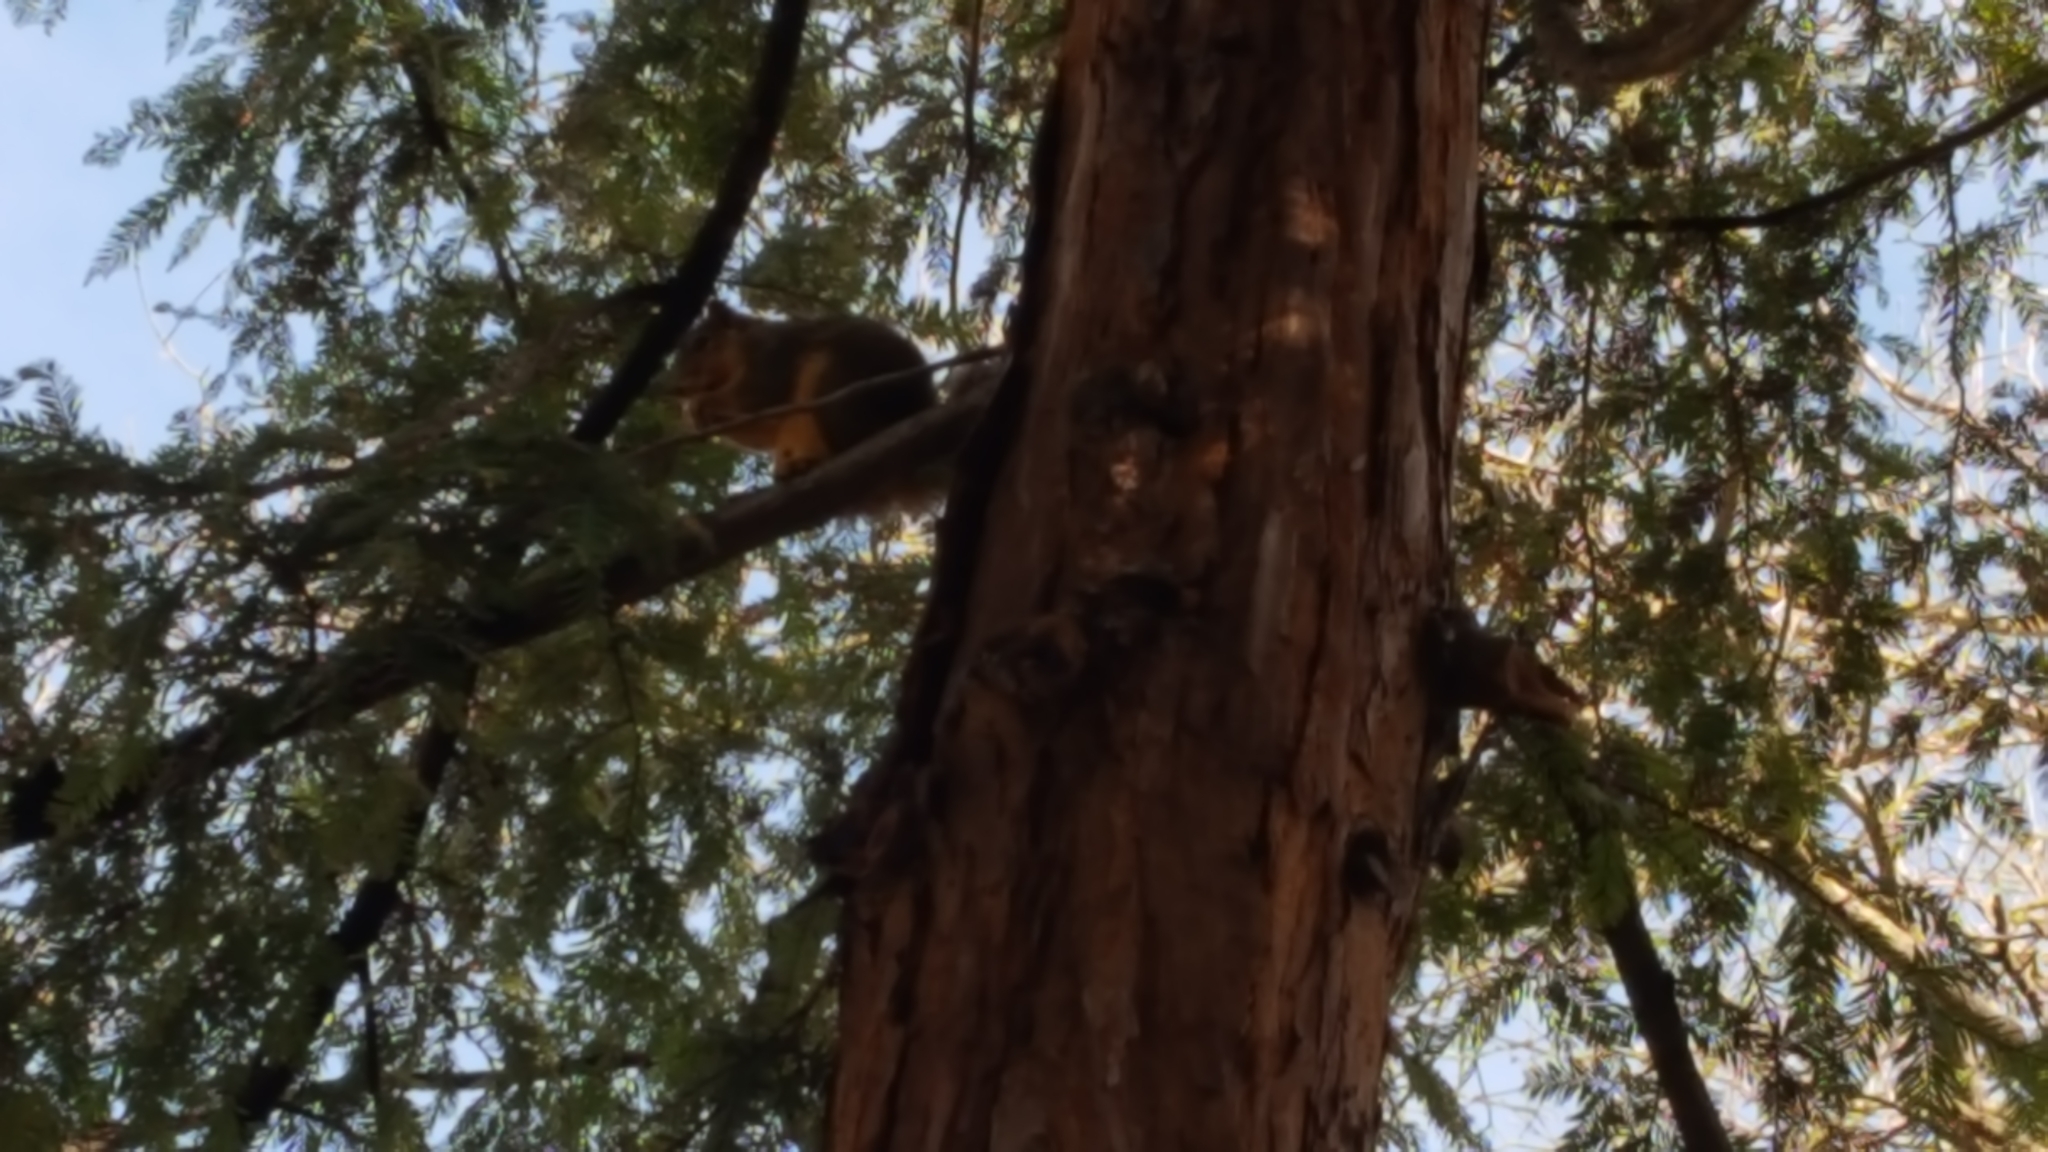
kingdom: Animalia
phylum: Chordata
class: Mammalia
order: Rodentia
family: Sciuridae
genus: Sciurus
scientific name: Sciurus niger
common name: Fox squirrel
